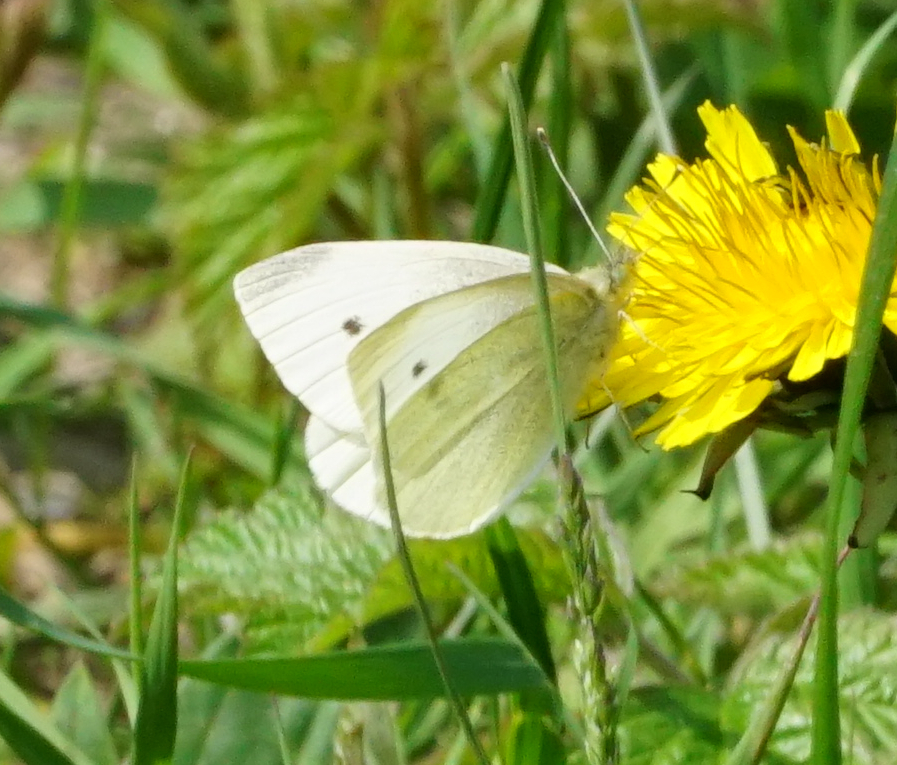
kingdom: Animalia
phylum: Arthropoda
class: Insecta
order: Lepidoptera
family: Pieridae
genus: Pieris
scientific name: Pieris rapae
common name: Small white
